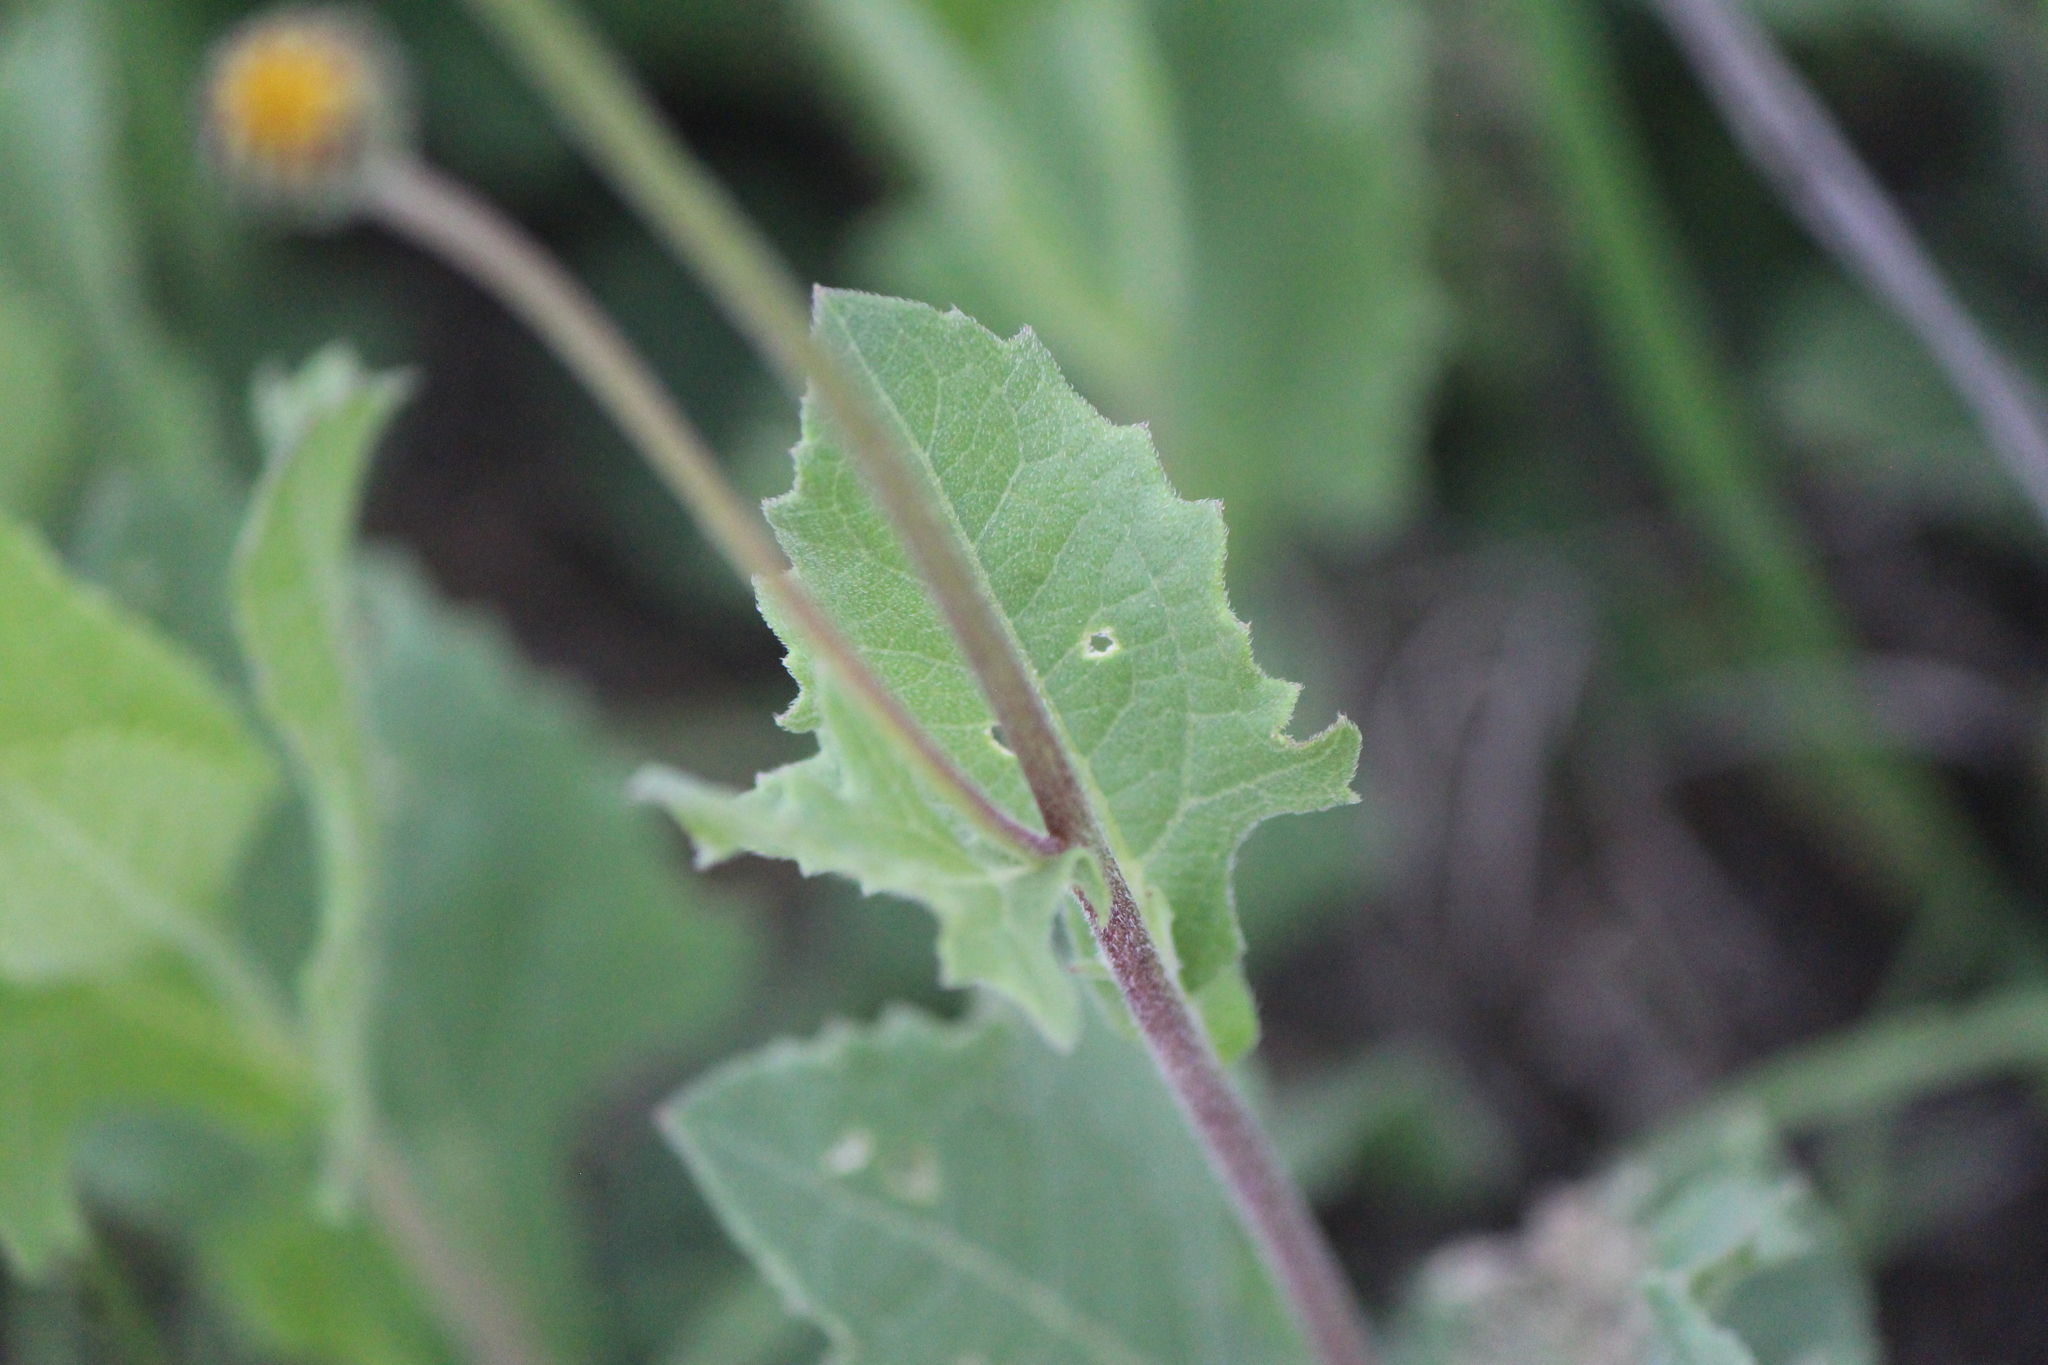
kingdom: Plantae
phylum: Tracheophyta
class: Magnoliopsida
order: Asterales
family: Asteraceae
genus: Verbesina
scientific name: Verbesina longipes
